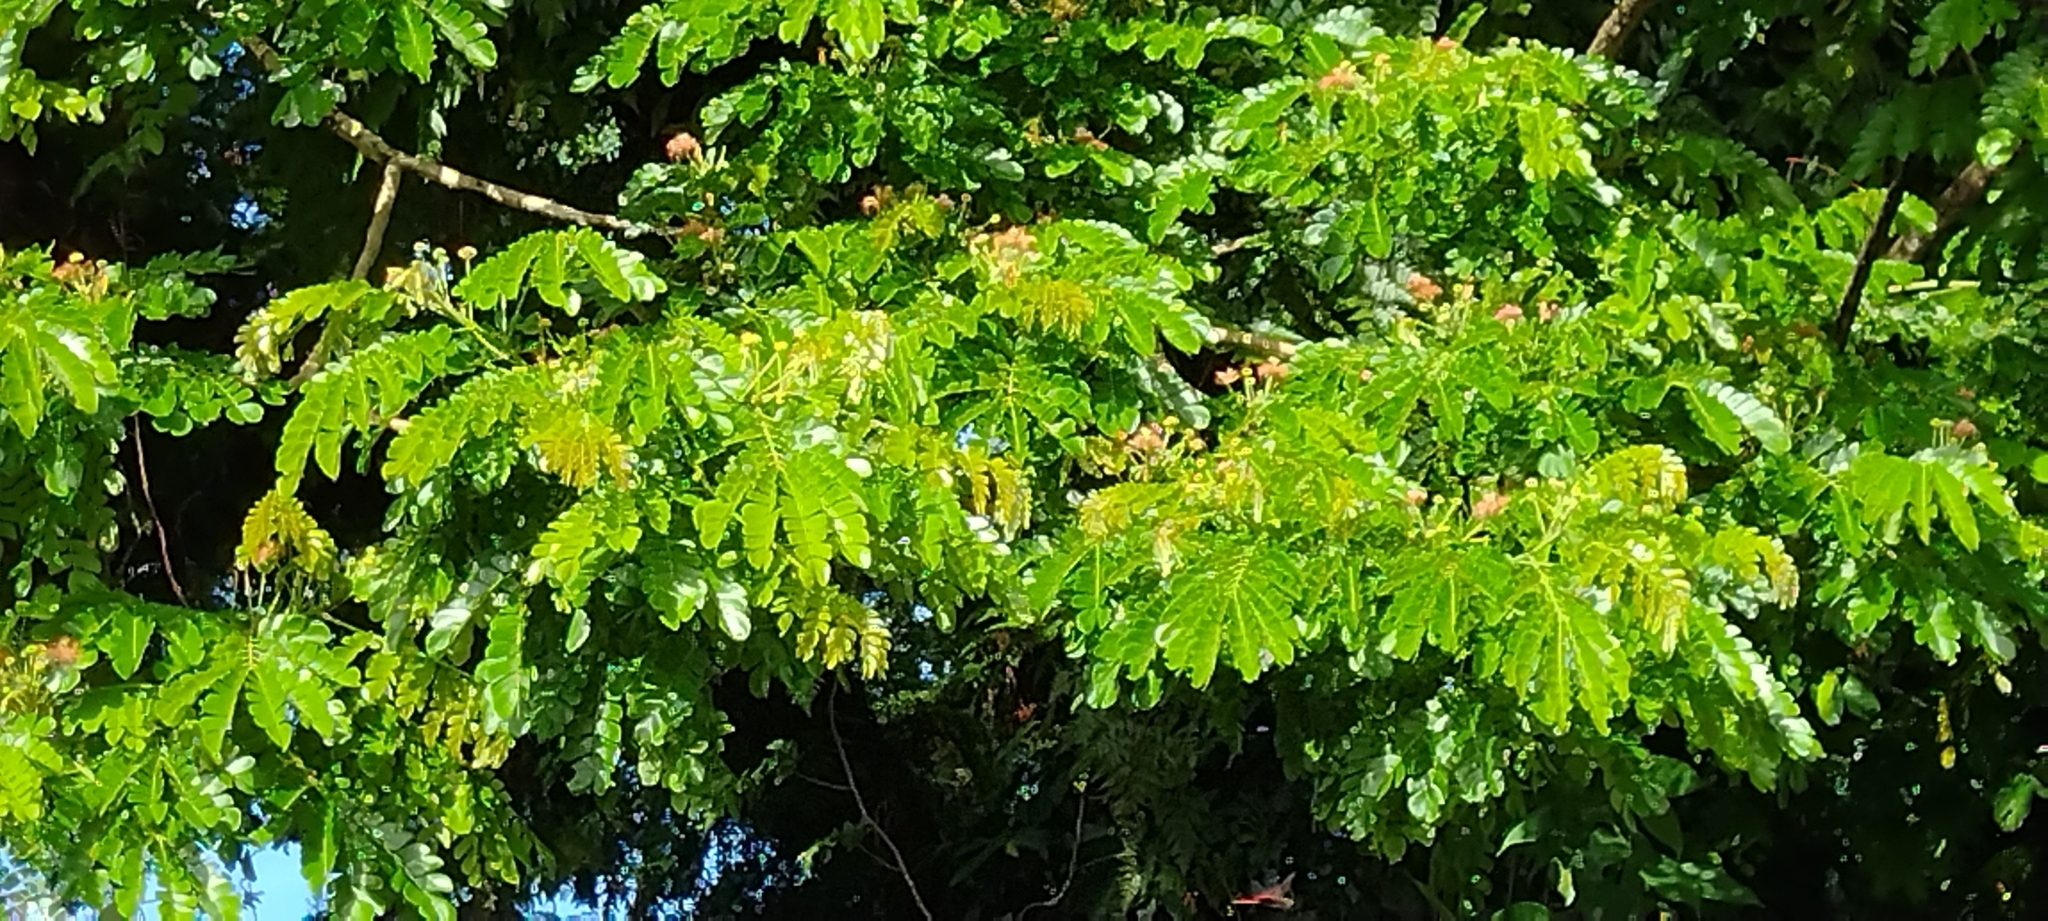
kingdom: Plantae
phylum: Tracheophyta
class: Magnoliopsida
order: Fabales
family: Fabaceae
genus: Samanea
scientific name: Samanea saman
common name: Raintree
